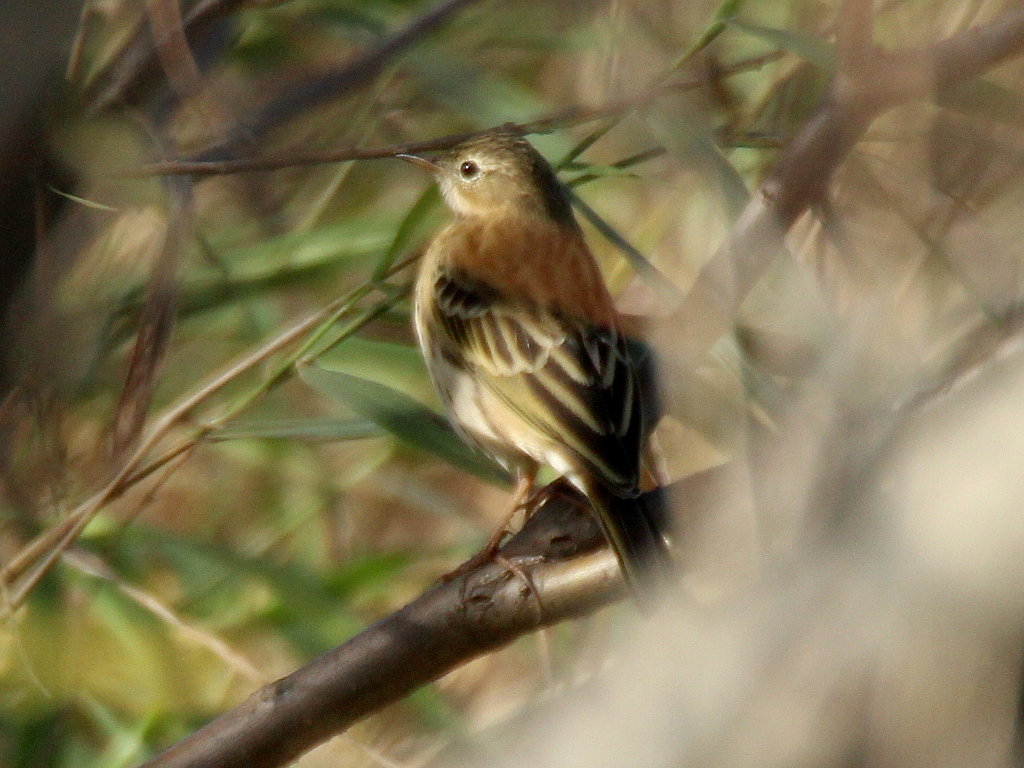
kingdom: Animalia
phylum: Chordata
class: Aves
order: Passeriformes
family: Motacillidae
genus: Anthus
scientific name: Anthus pratensis
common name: Meadow pipit
